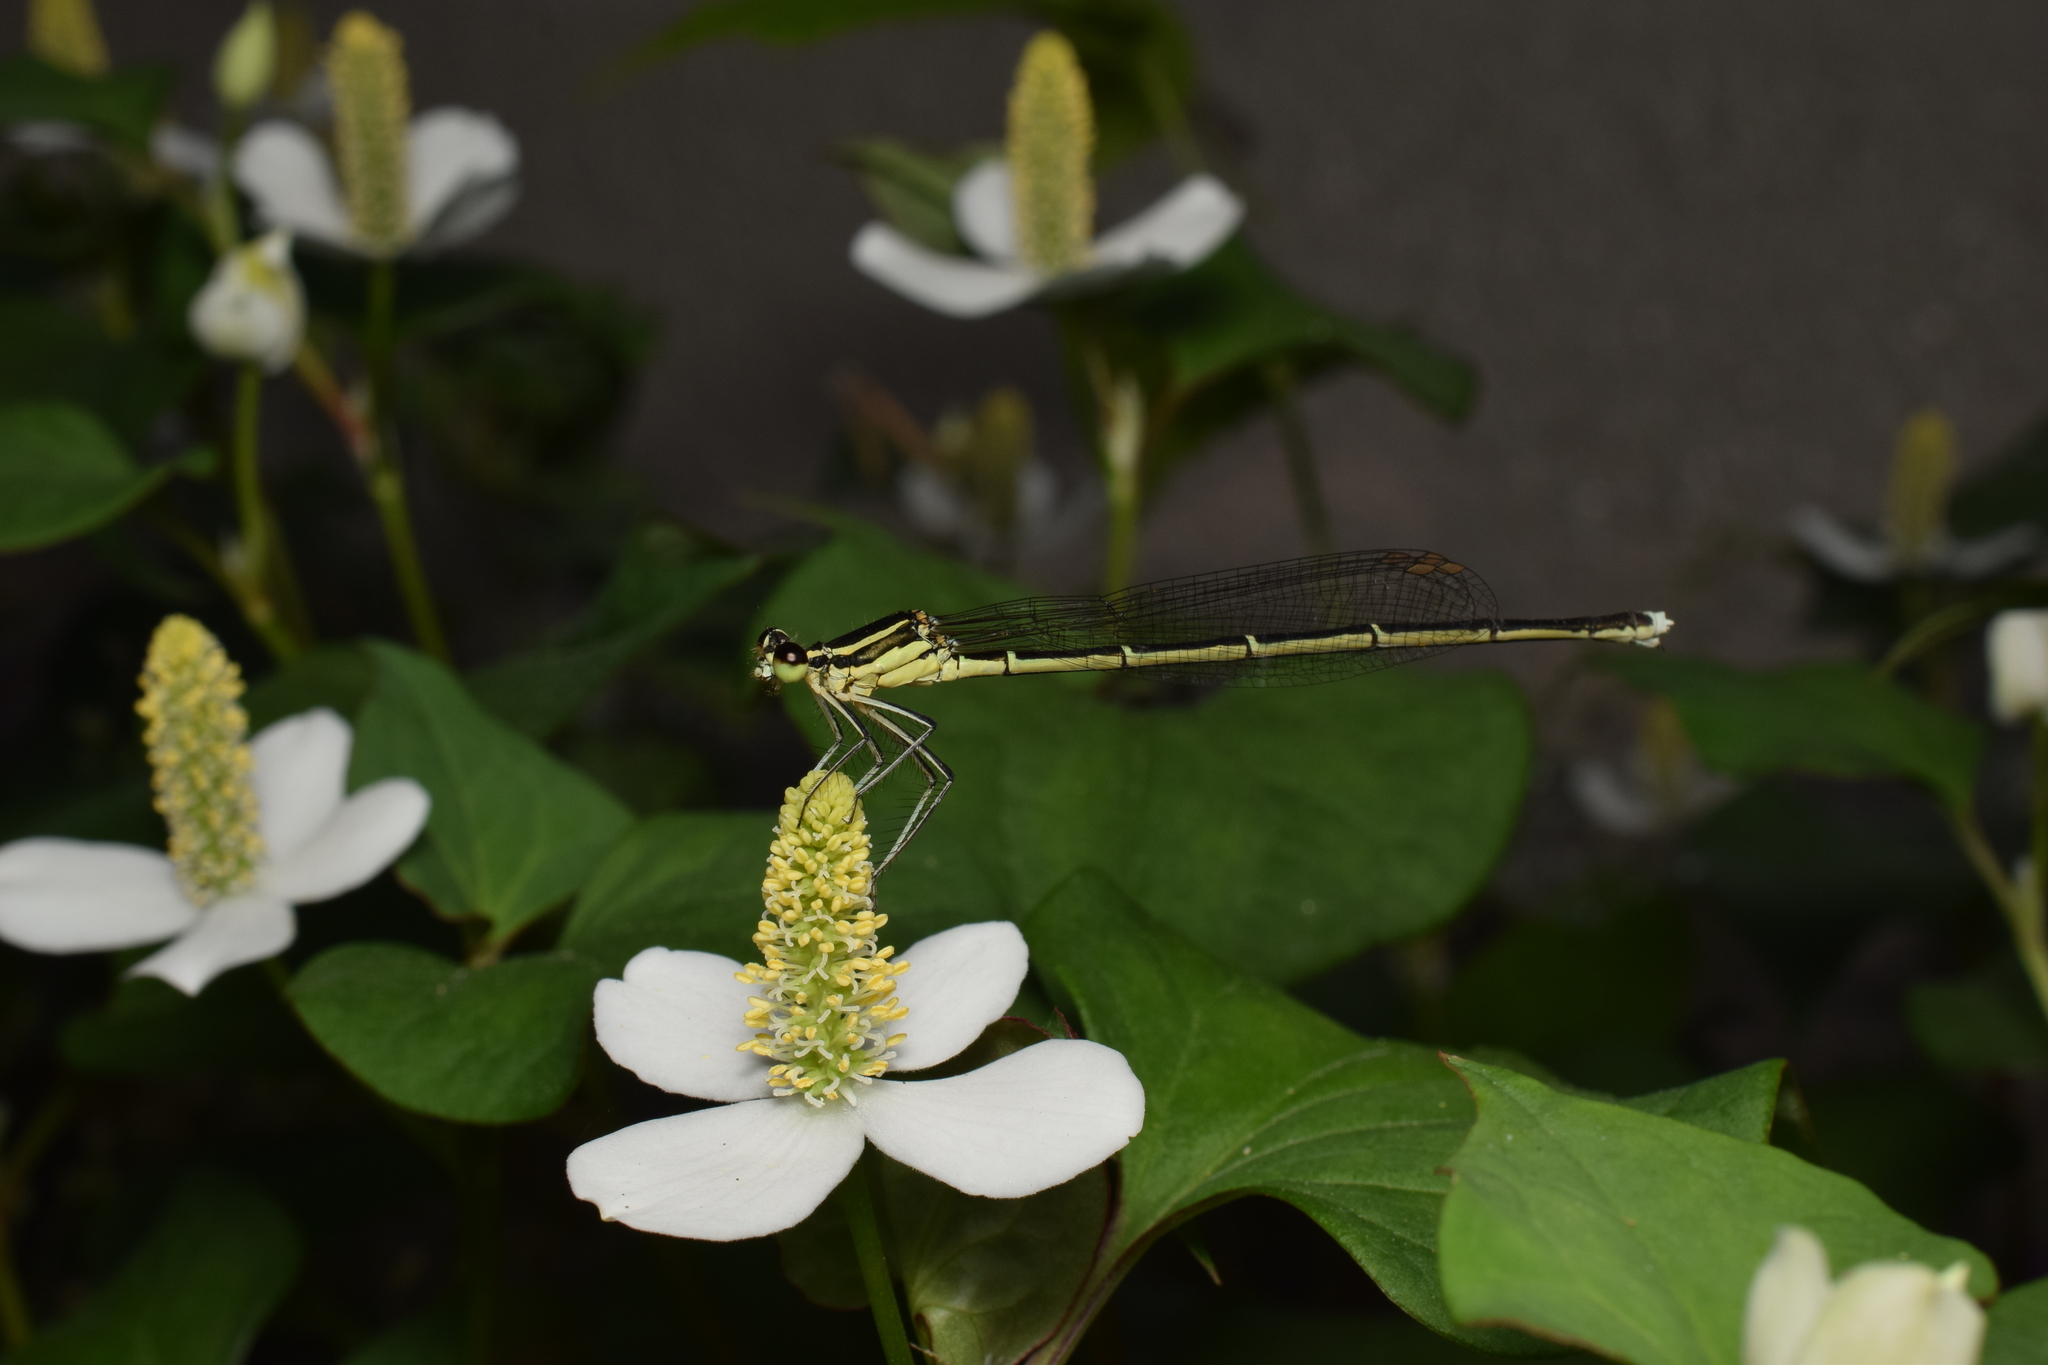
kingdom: Animalia
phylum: Arthropoda
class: Insecta
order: Odonata
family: Platycnemididae
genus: Pseudocopera
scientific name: Pseudocopera annulata
